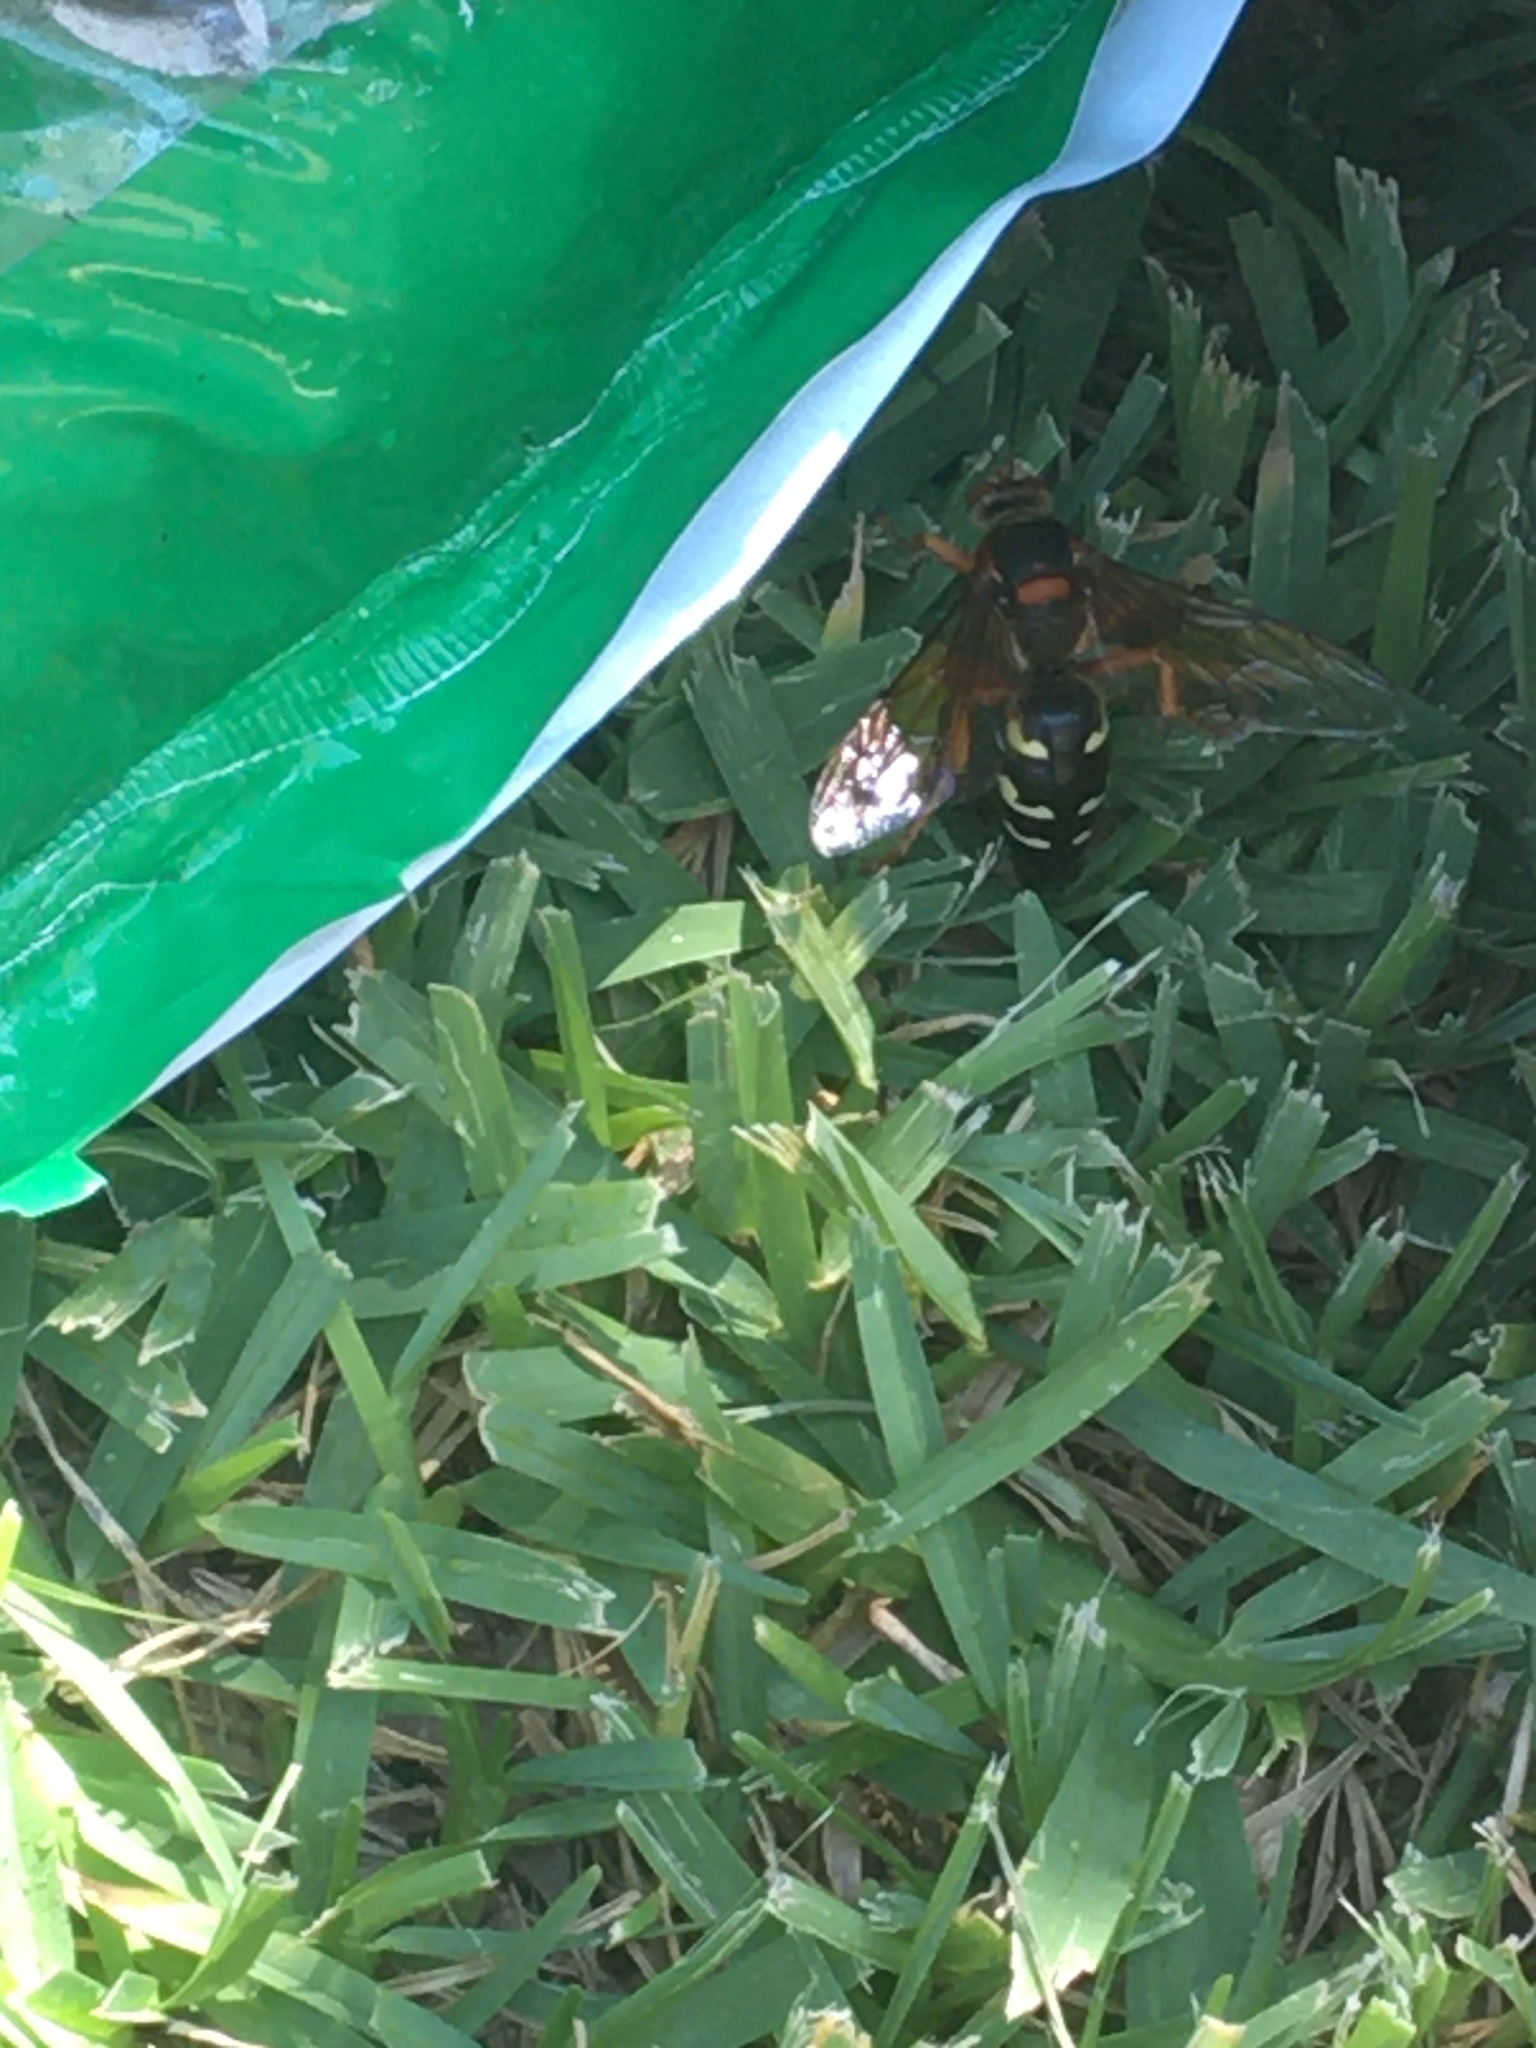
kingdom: Animalia
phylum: Arthropoda
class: Insecta
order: Hymenoptera
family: Crabronidae
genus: Sphecius
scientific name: Sphecius speciosus
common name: Cicada killer
